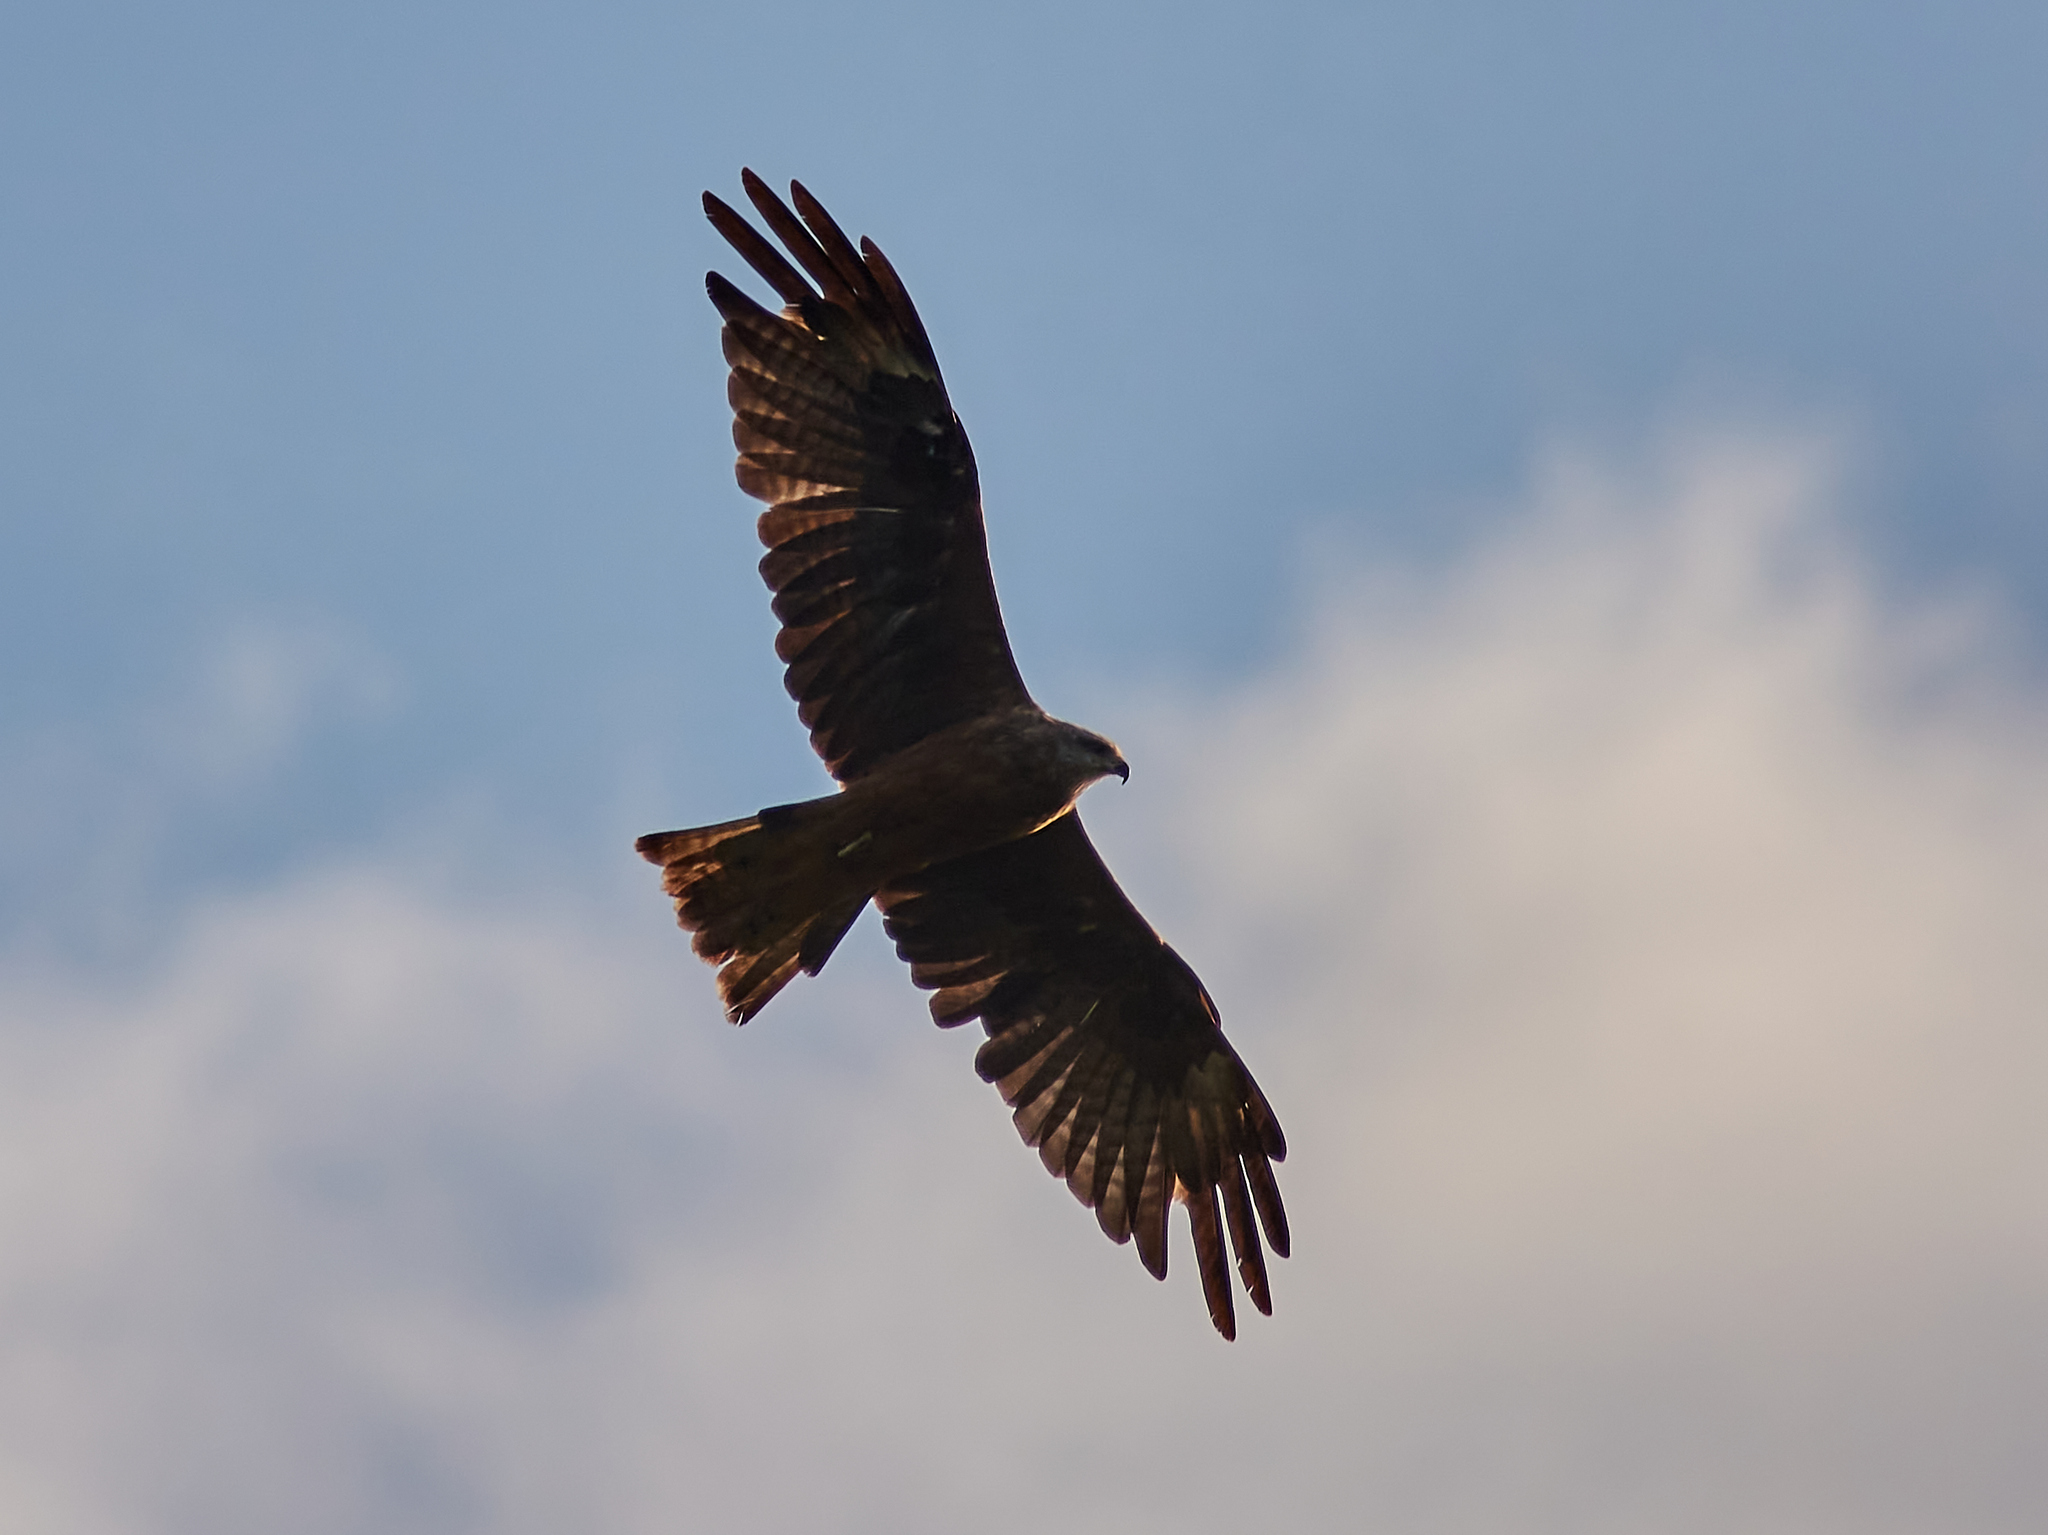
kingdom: Animalia
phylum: Chordata
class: Aves
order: Accipitriformes
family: Accipitridae
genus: Milvus
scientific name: Milvus migrans
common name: Black kite
